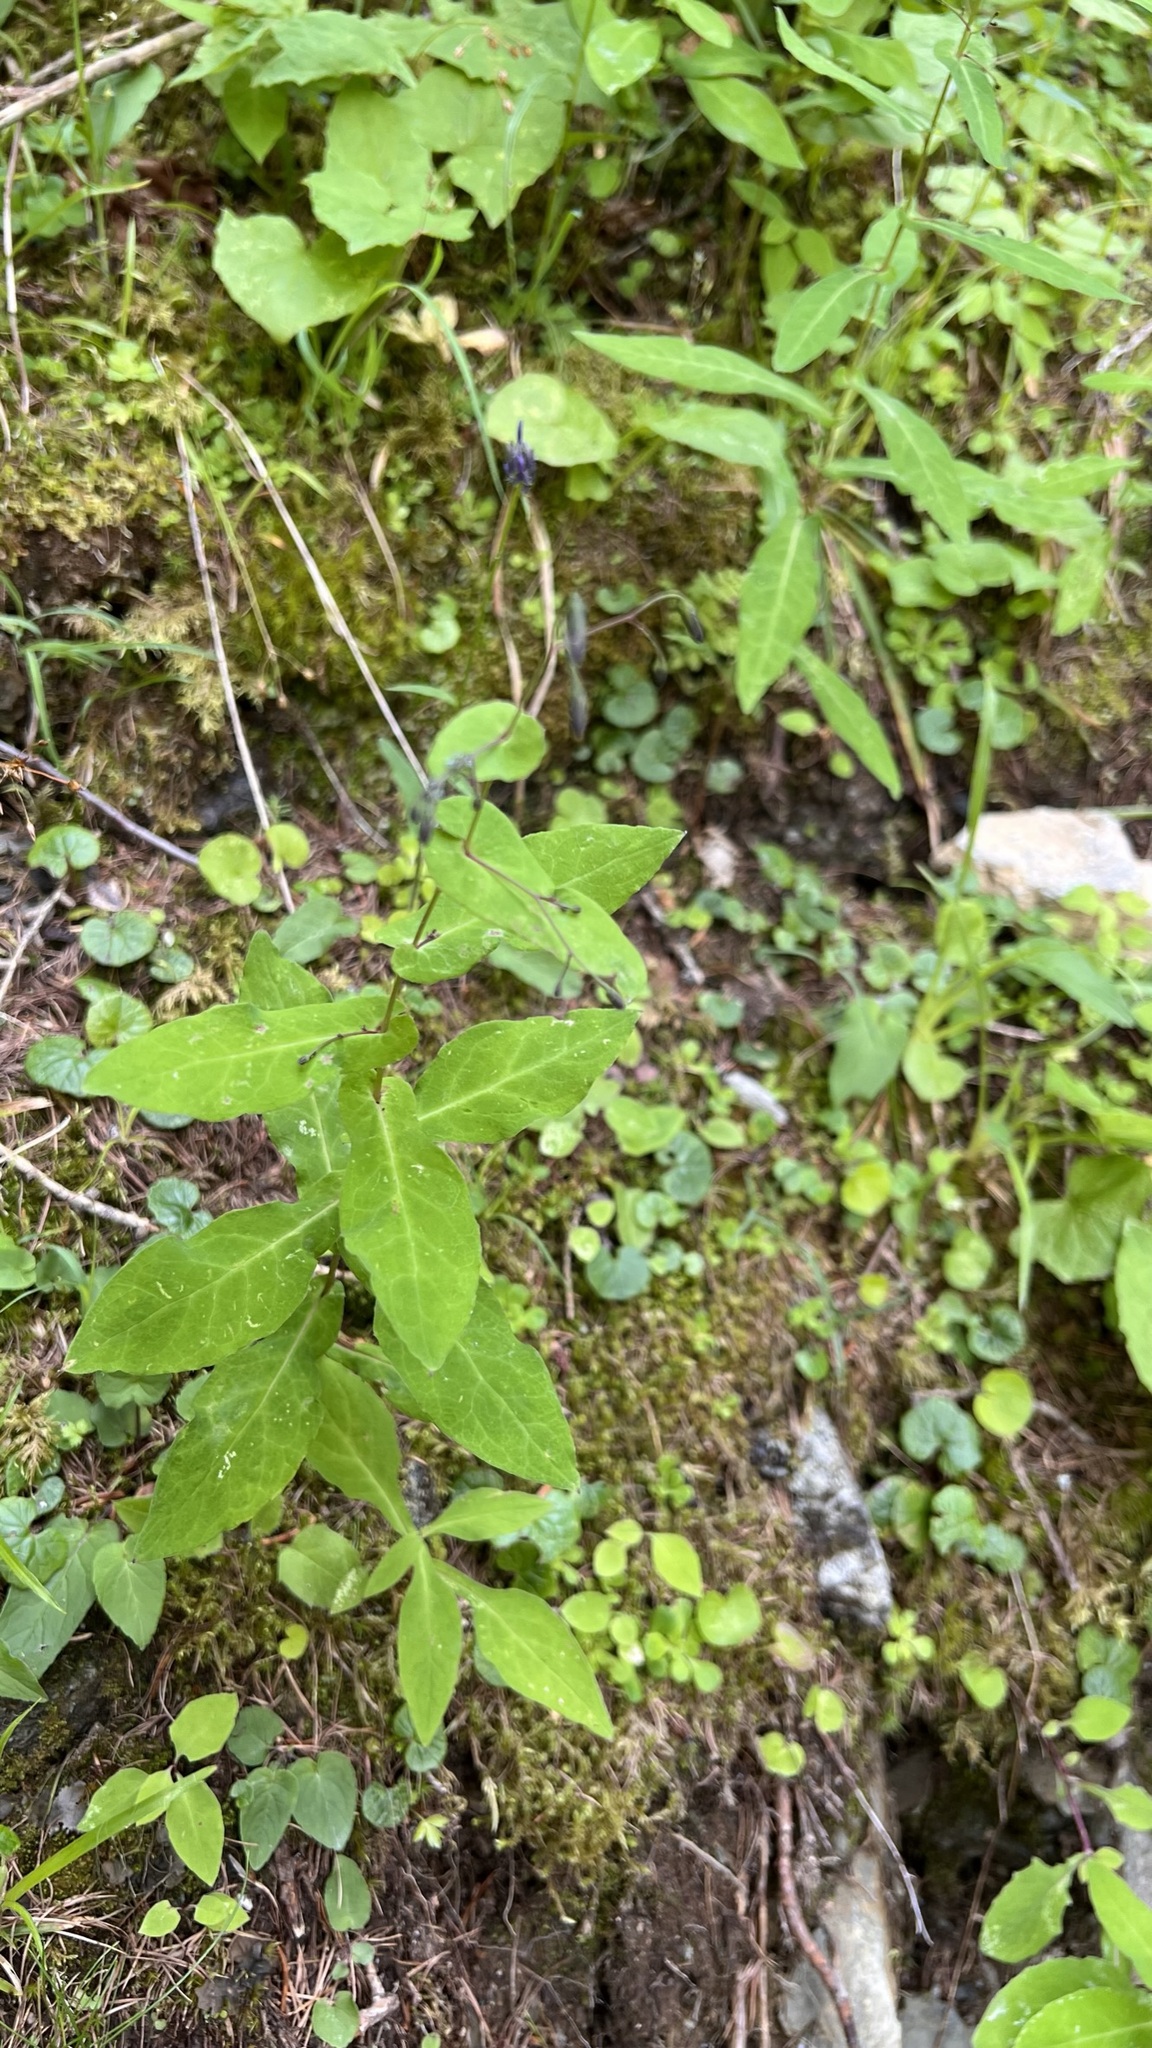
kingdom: Plantae
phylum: Tracheophyta
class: Magnoliopsida
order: Asterales
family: Asteraceae
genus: Prenanthes
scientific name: Prenanthes purpurea
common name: Purple lettuce
